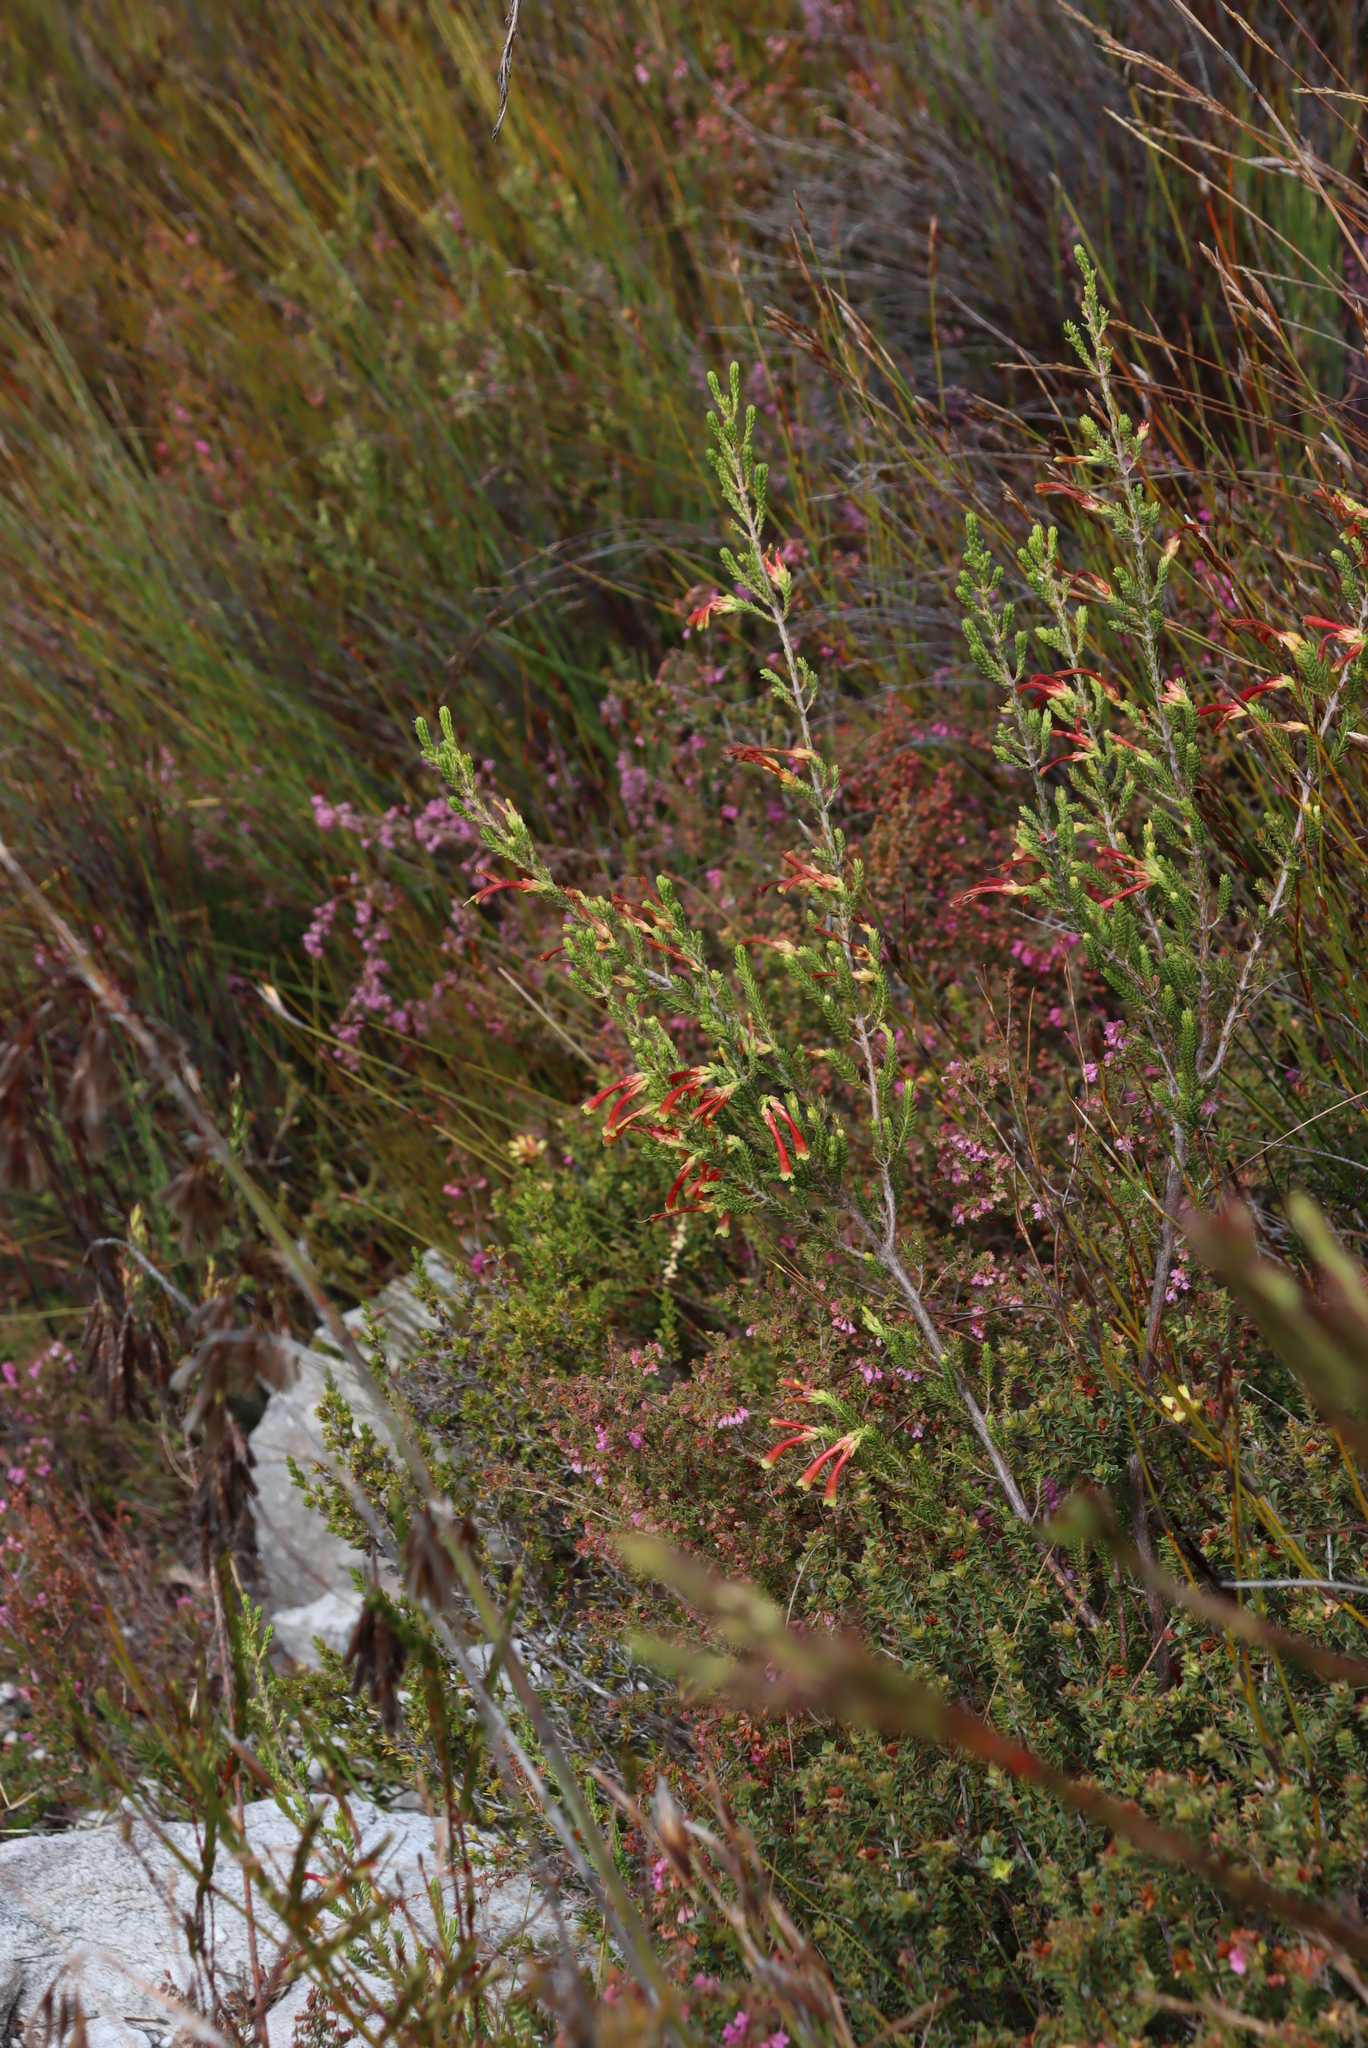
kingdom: Plantae
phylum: Tracheophyta
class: Magnoliopsida
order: Ericales
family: Ericaceae
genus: Erica
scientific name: Erica discolor
